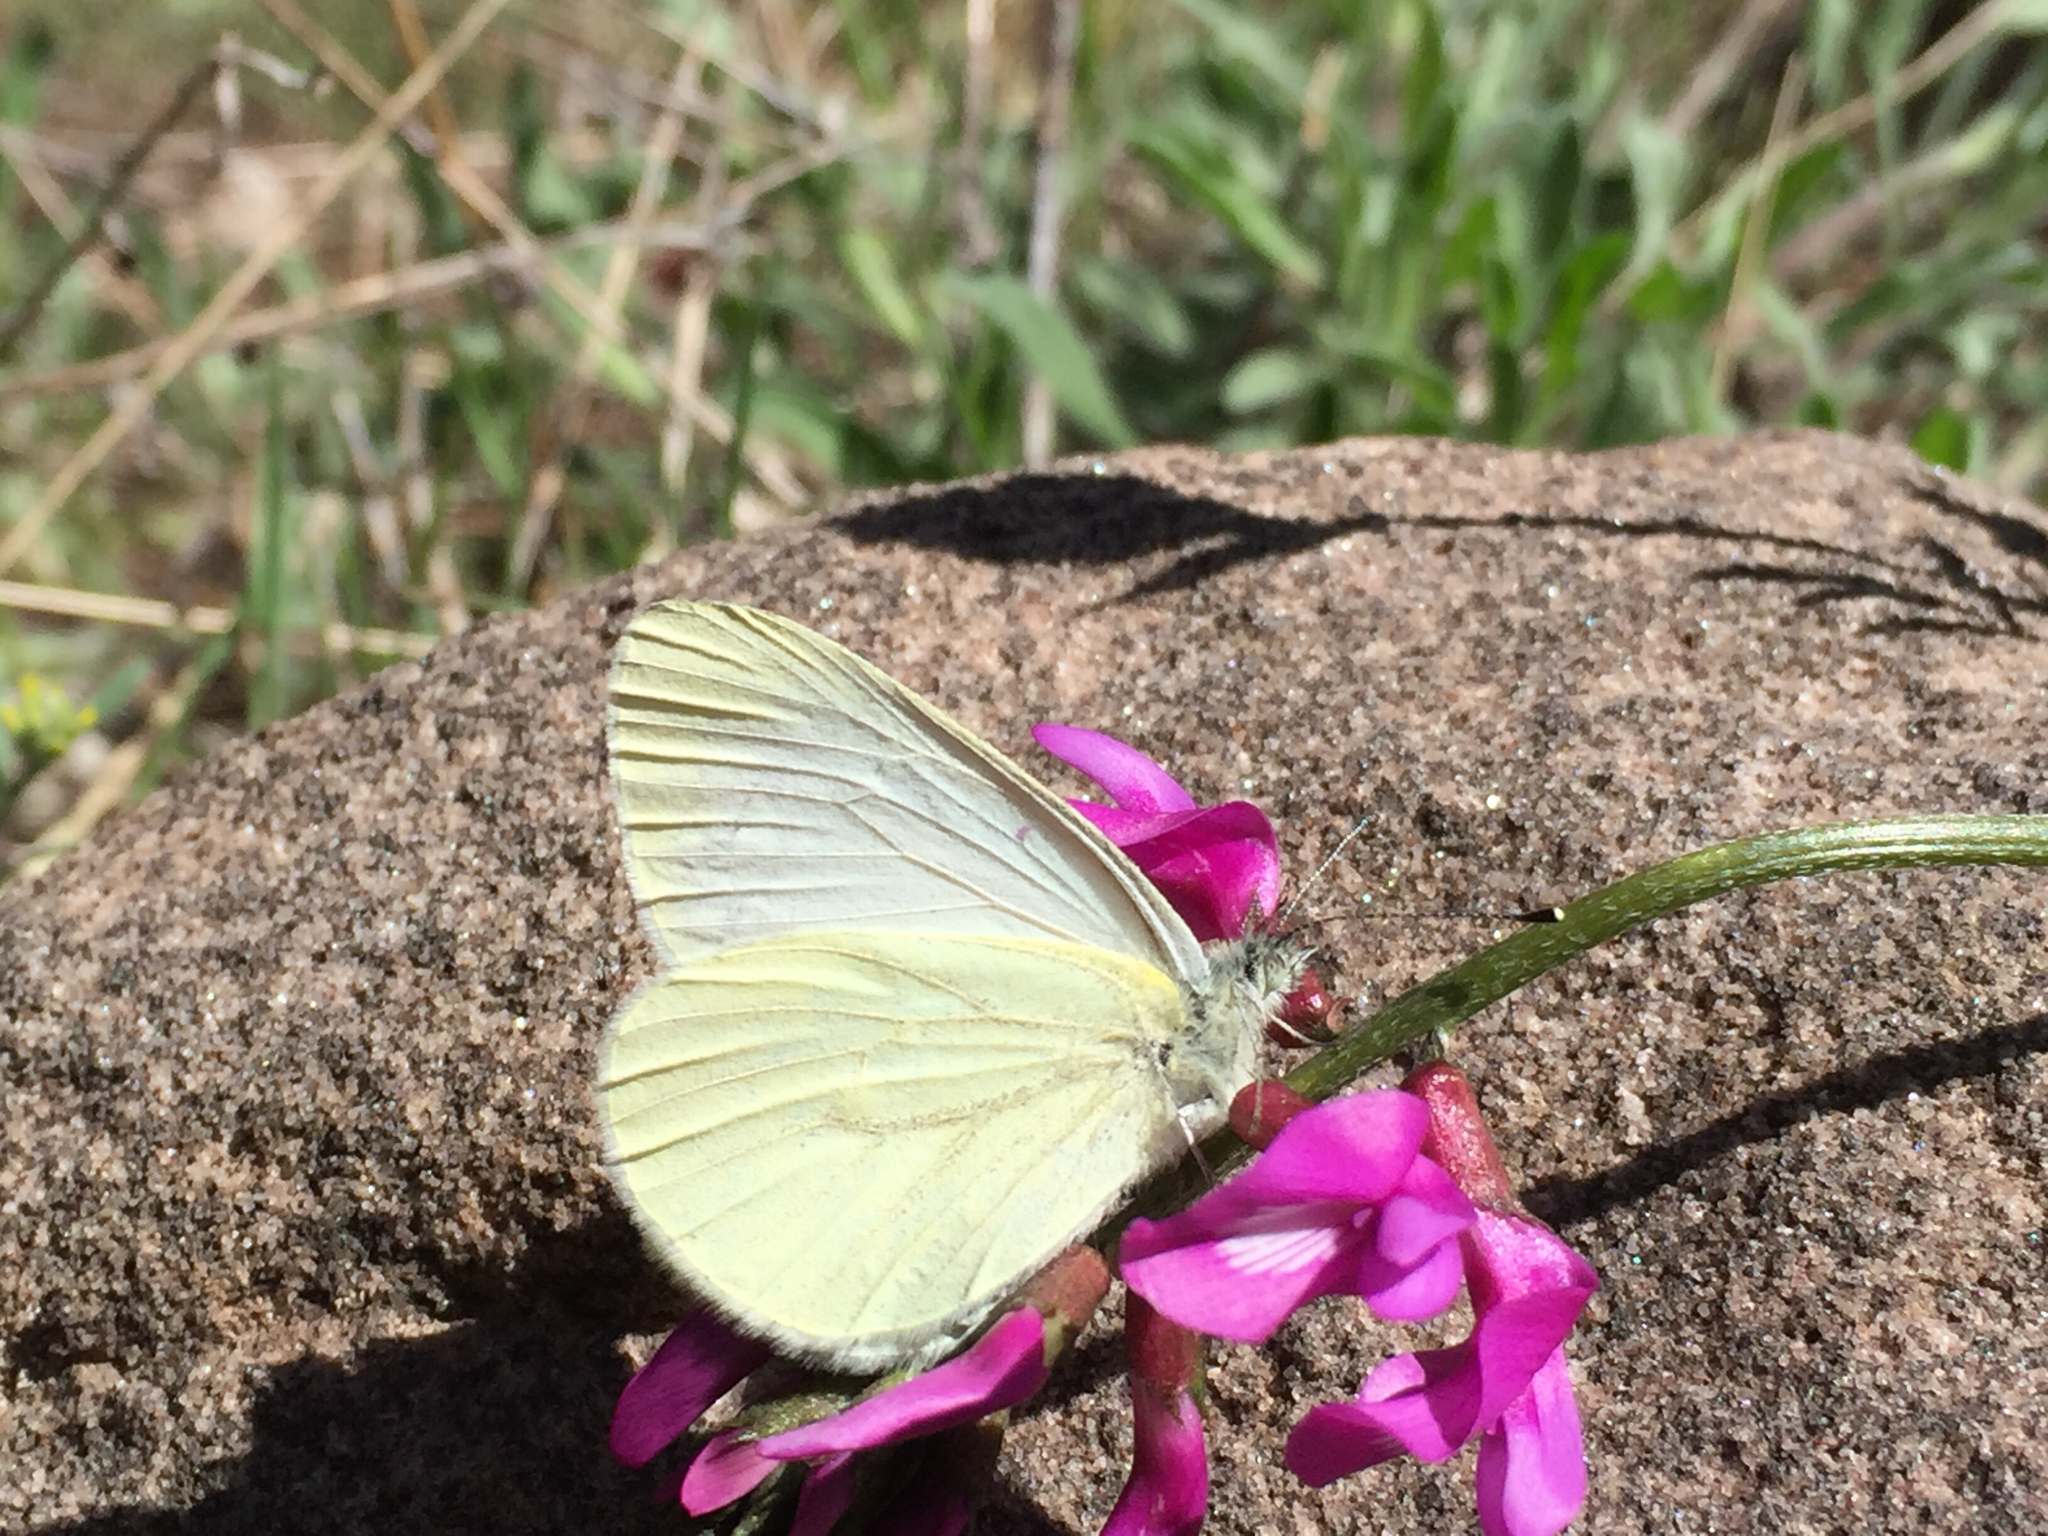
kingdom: Animalia
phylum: Arthropoda
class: Insecta
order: Lepidoptera
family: Pieridae
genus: Pieris
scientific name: Pieris marginalis
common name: Margined white
